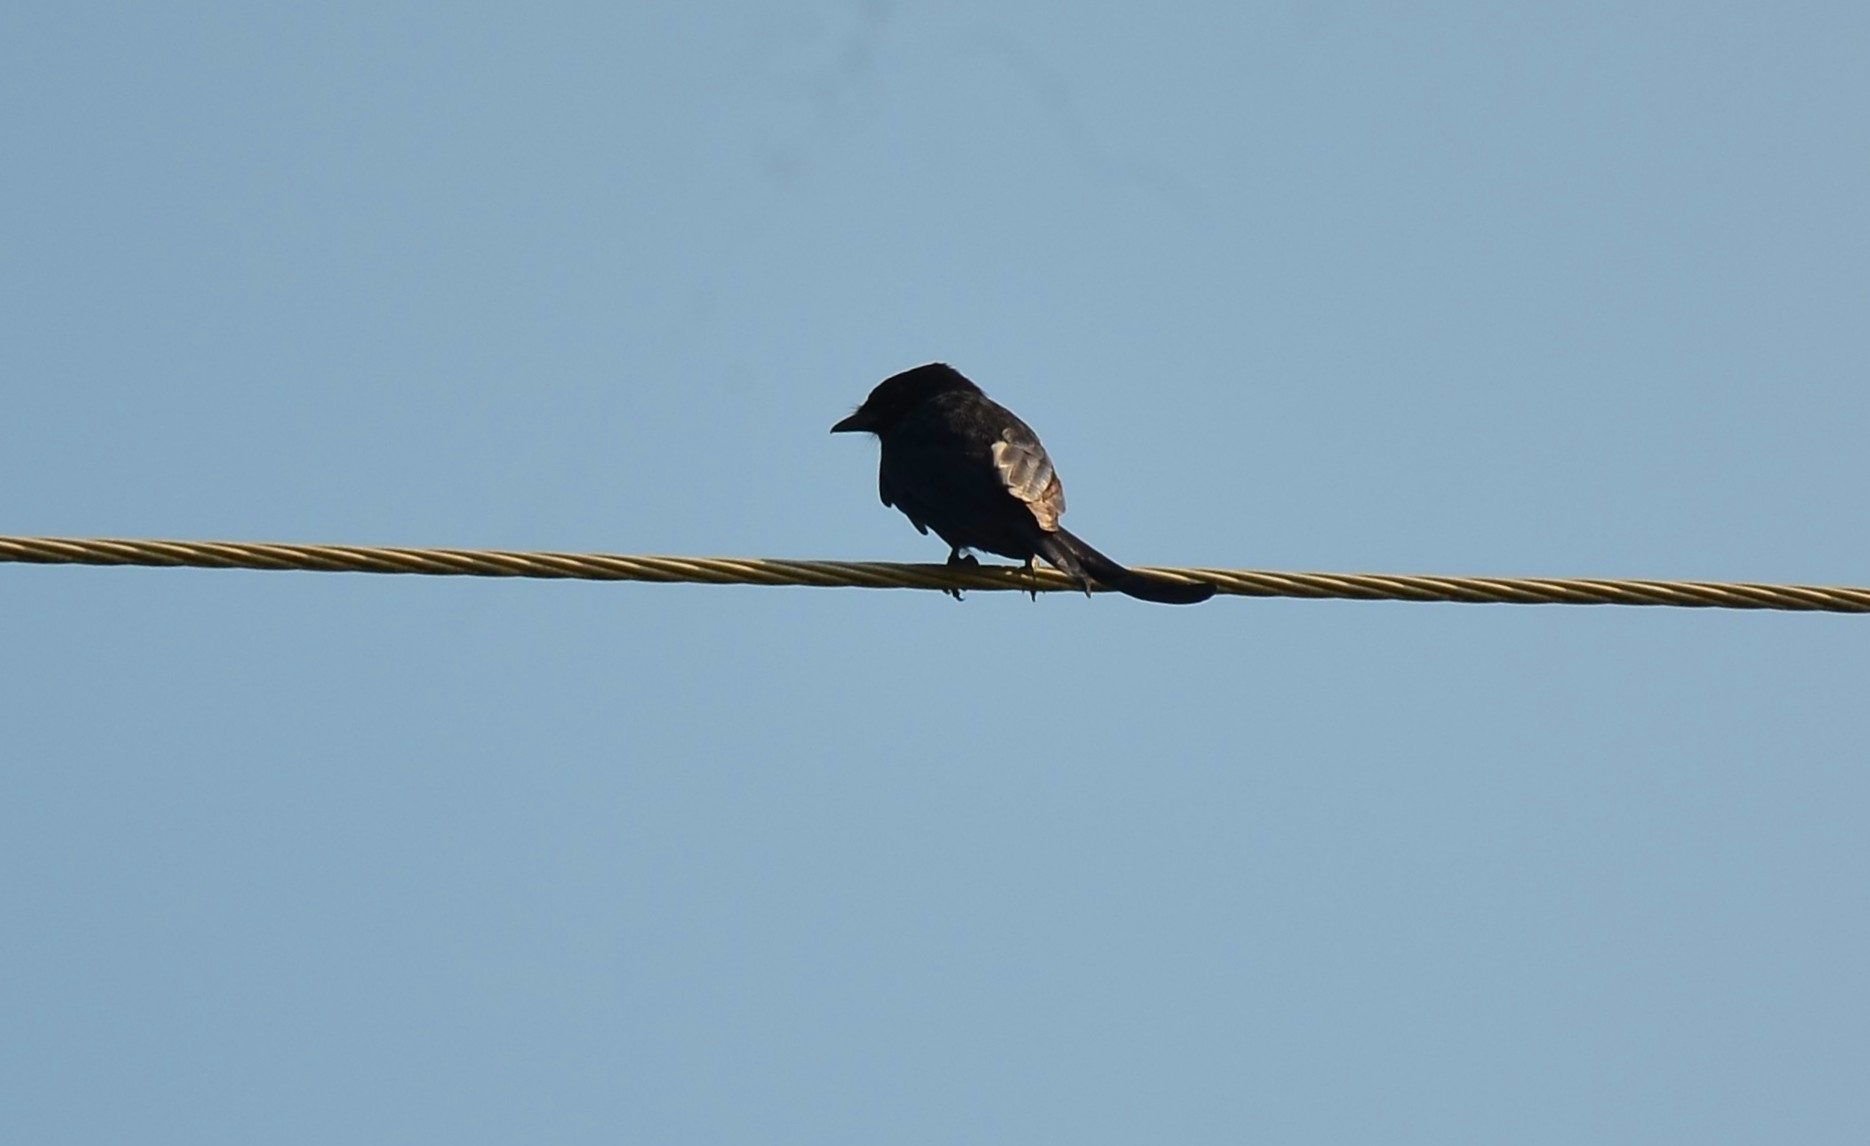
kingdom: Animalia
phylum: Chordata
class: Aves
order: Passeriformes
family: Dicruridae
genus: Dicrurus
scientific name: Dicrurus macrocercus
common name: Black drongo
